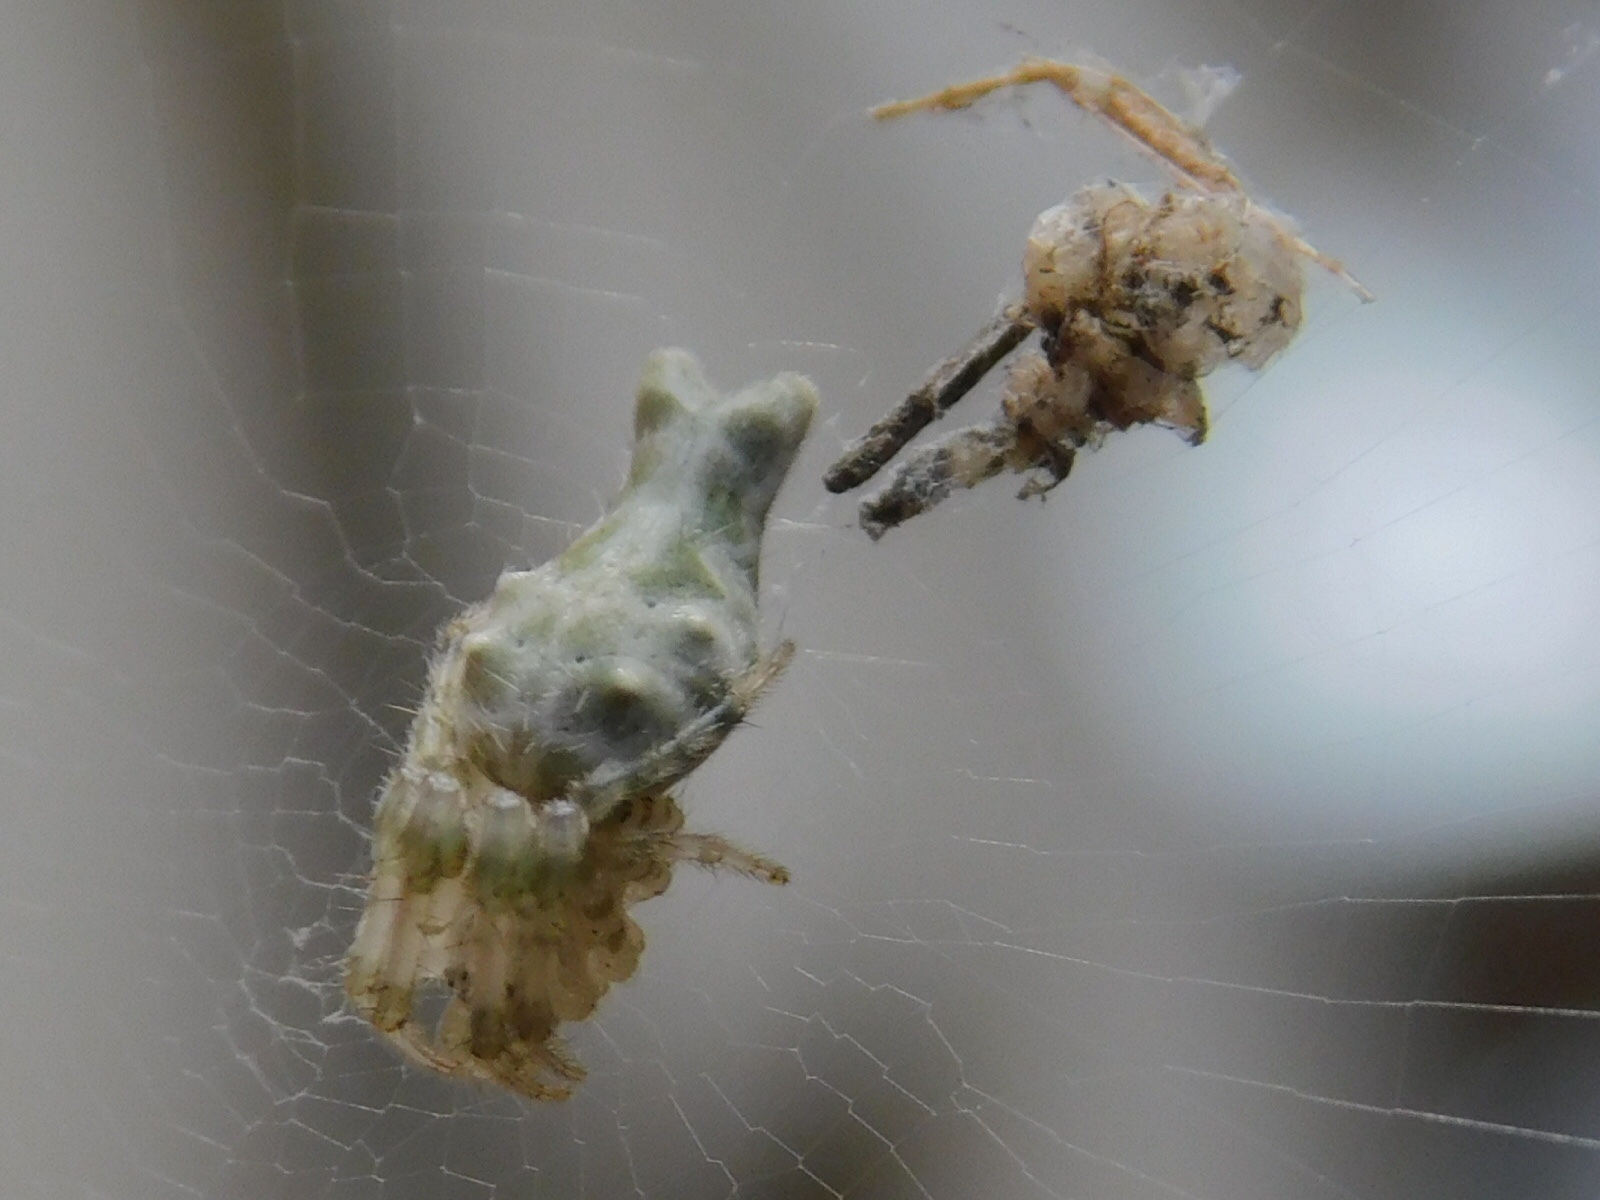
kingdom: Animalia
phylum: Arthropoda
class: Arachnida
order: Araneae
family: Araneidae
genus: Allocyclosa
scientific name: Allocyclosa bifurca
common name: Orb weavers
